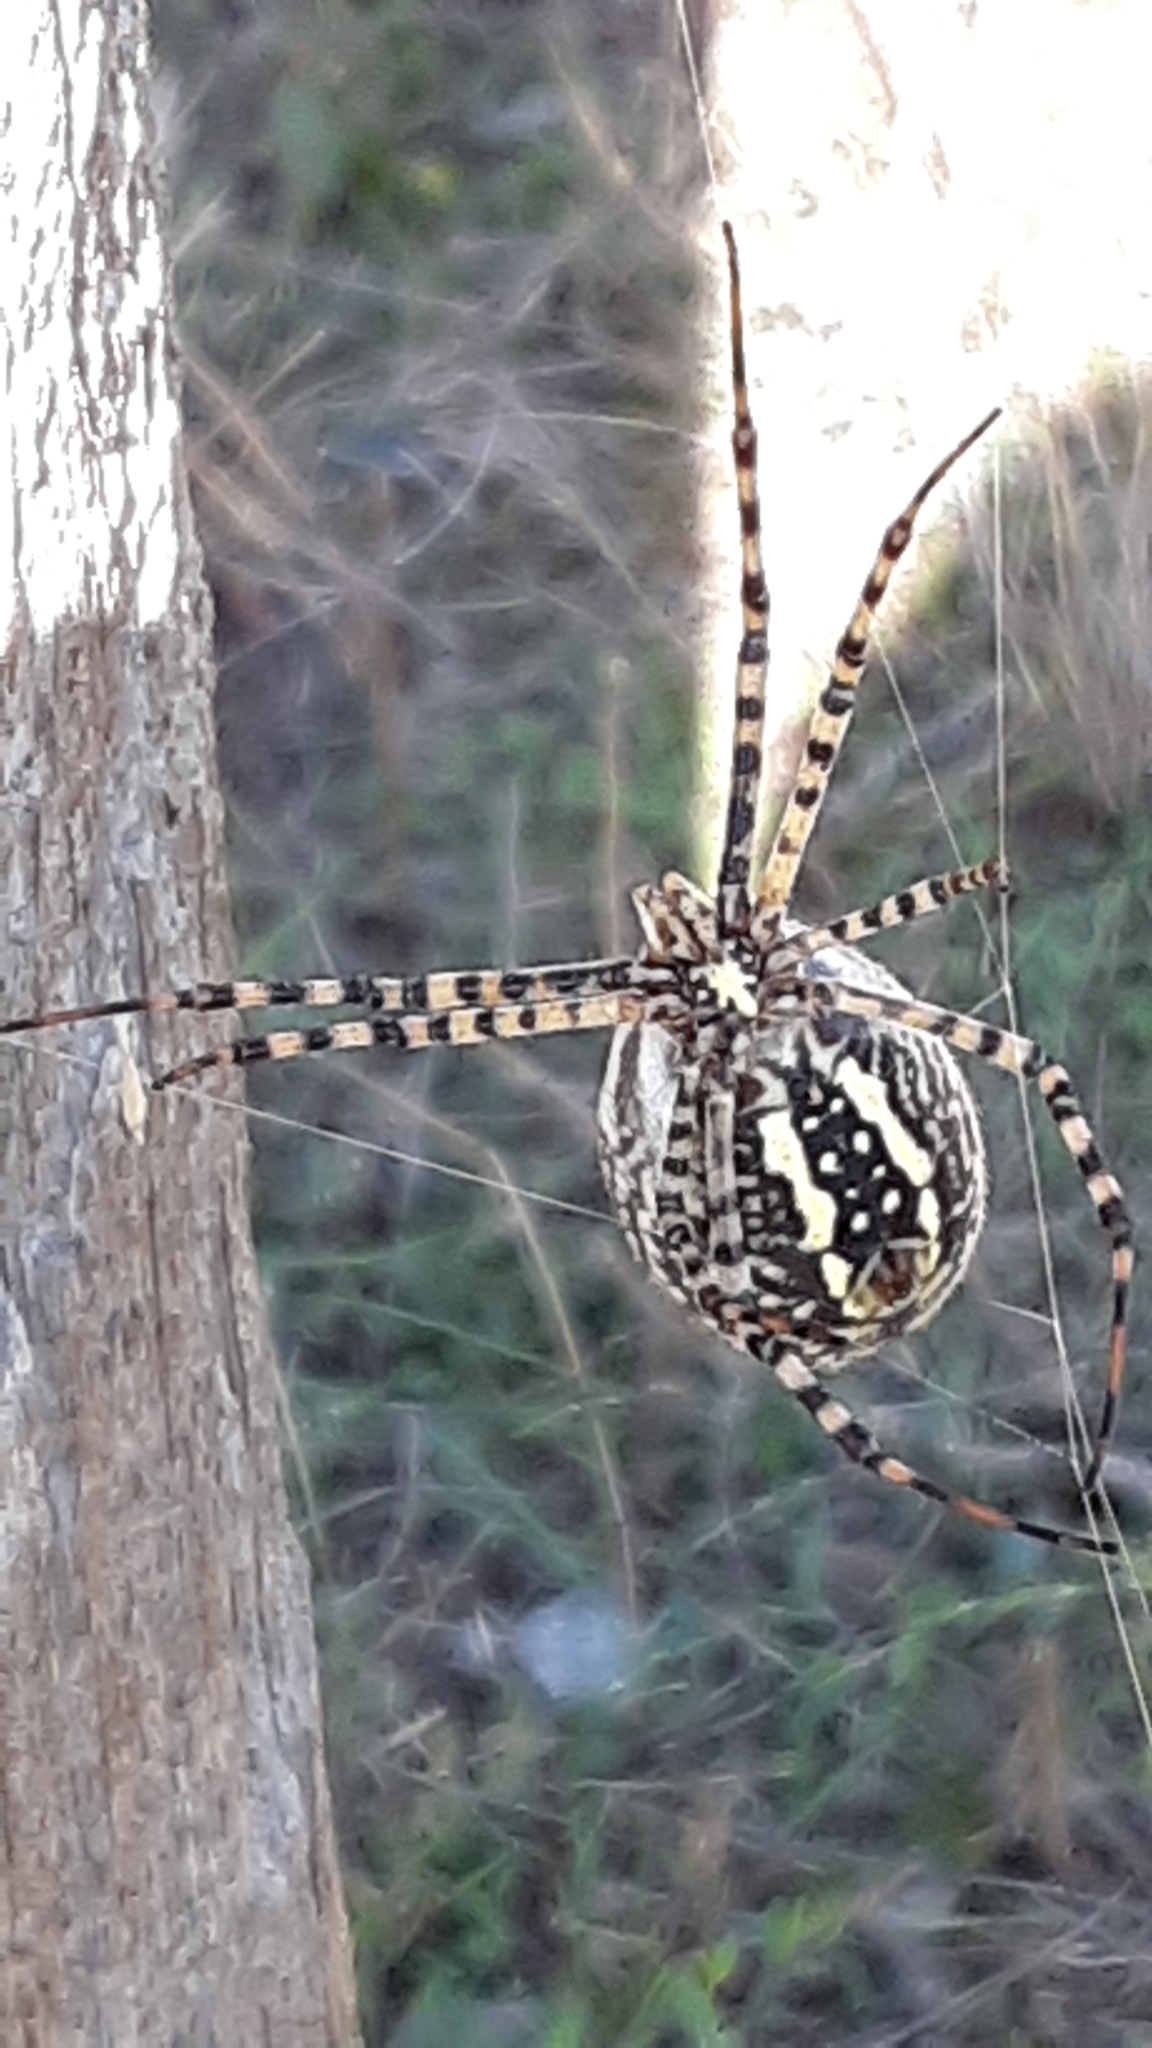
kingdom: Animalia
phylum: Arthropoda
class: Arachnida
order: Araneae
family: Araneidae
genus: Argiope
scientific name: Argiope trifasciata
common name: Banded garden spider
